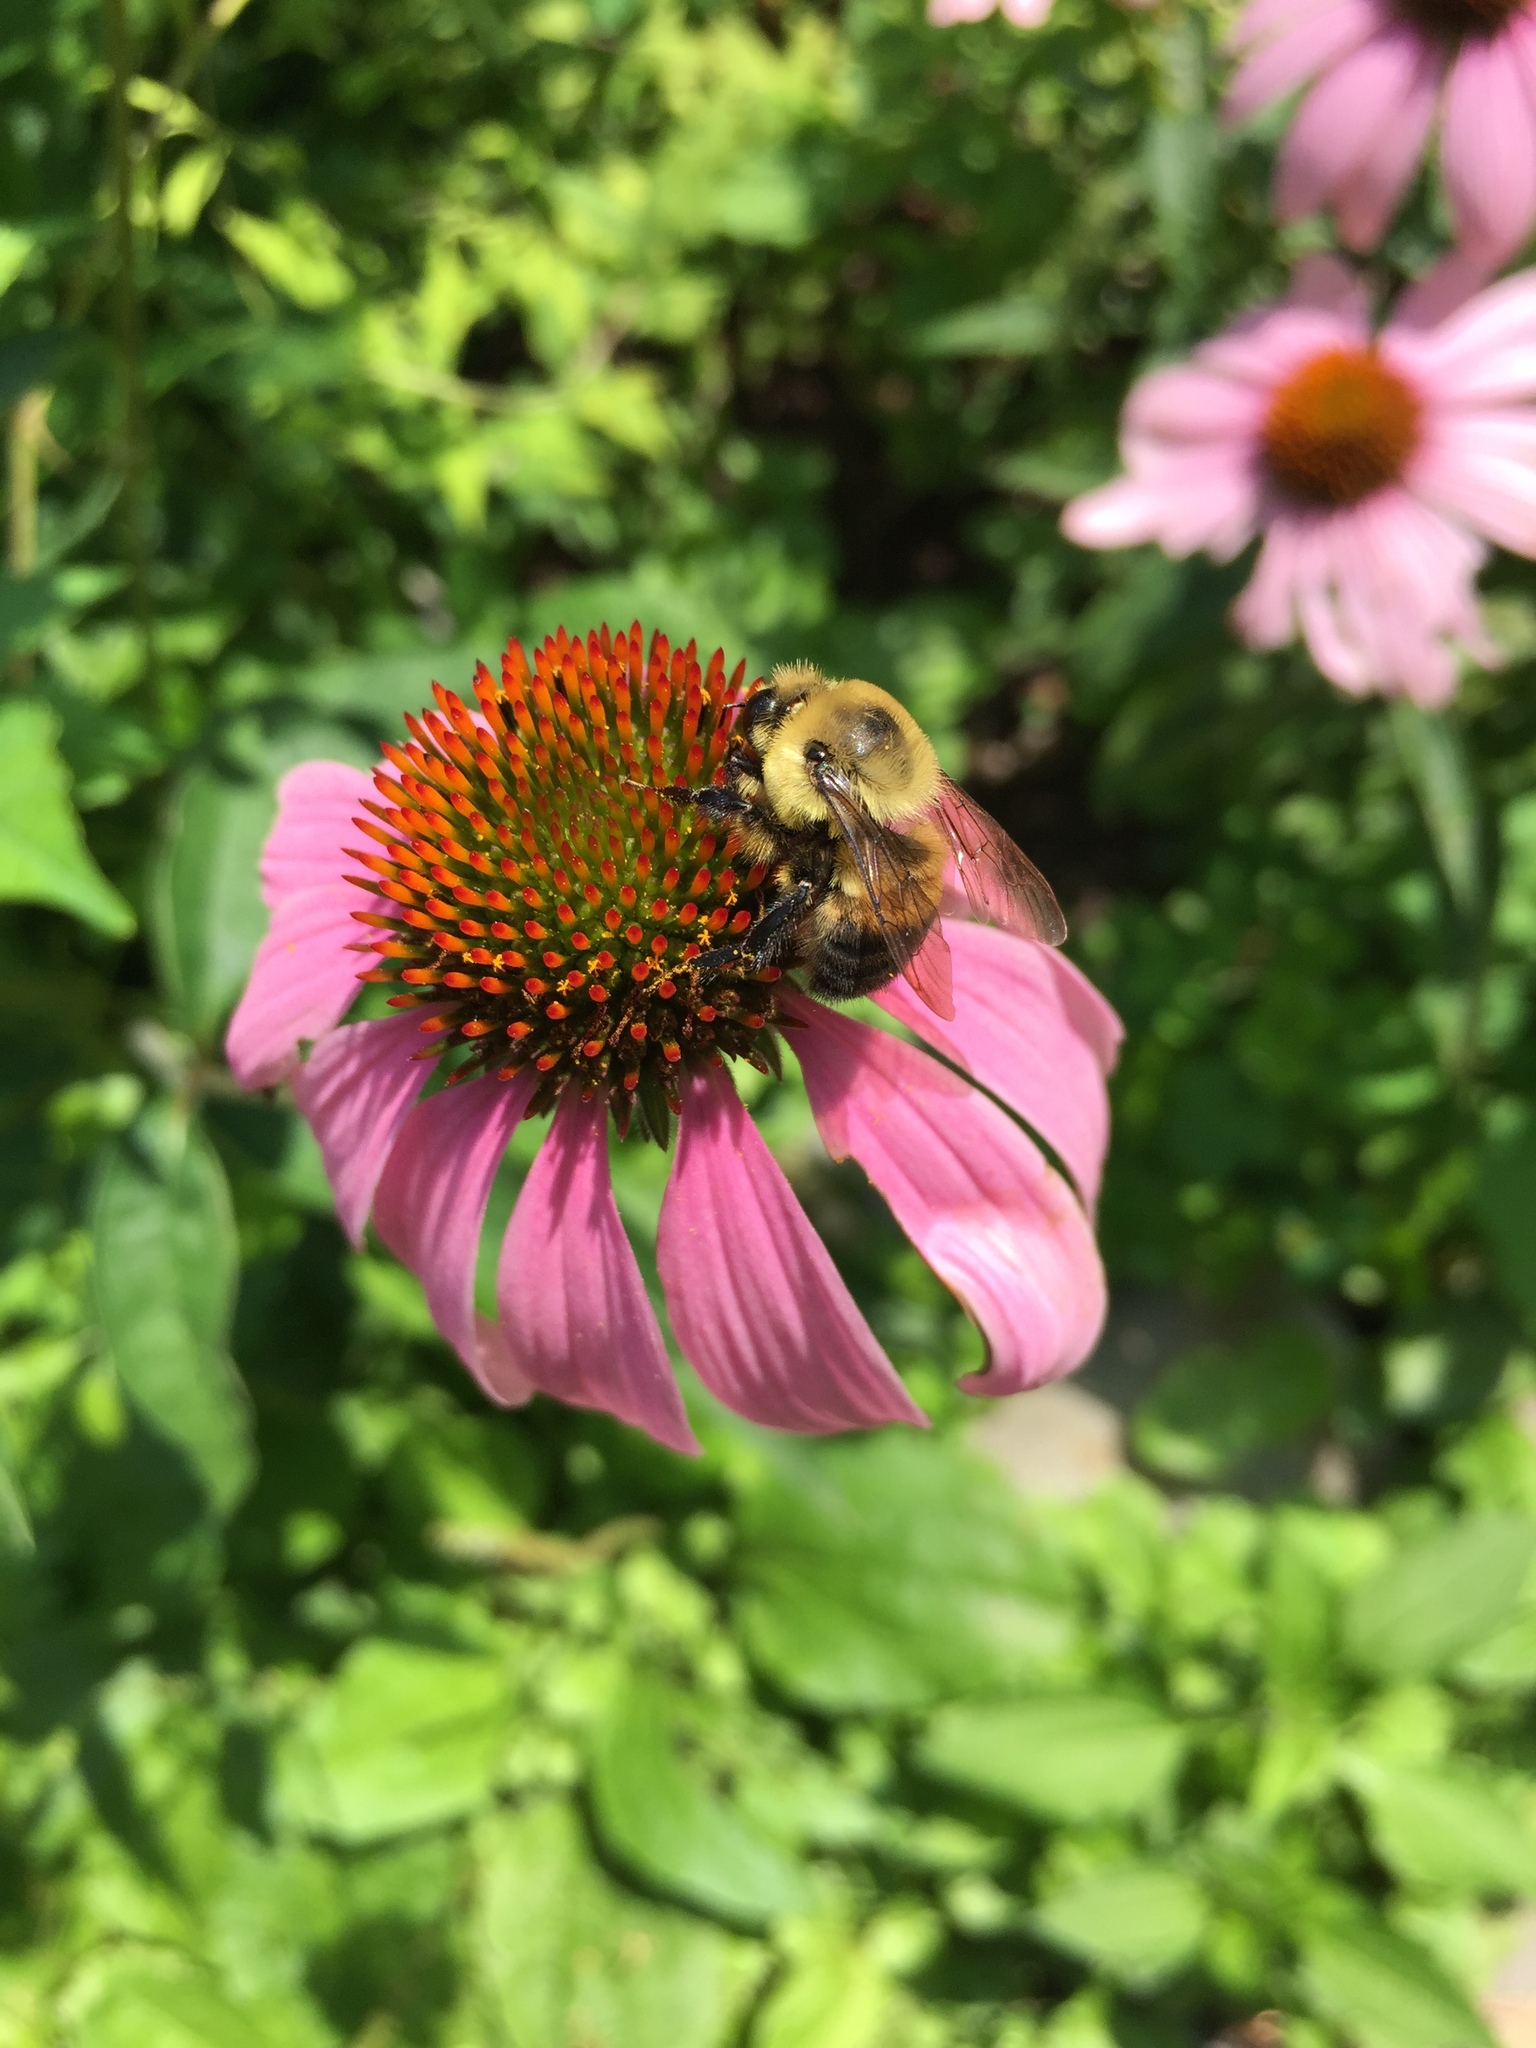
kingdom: Animalia
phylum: Arthropoda
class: Insecta
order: Hymenoptera
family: Apidae
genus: Bombus
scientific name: Bombus griseocollis
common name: Brown-belted bumble bee
